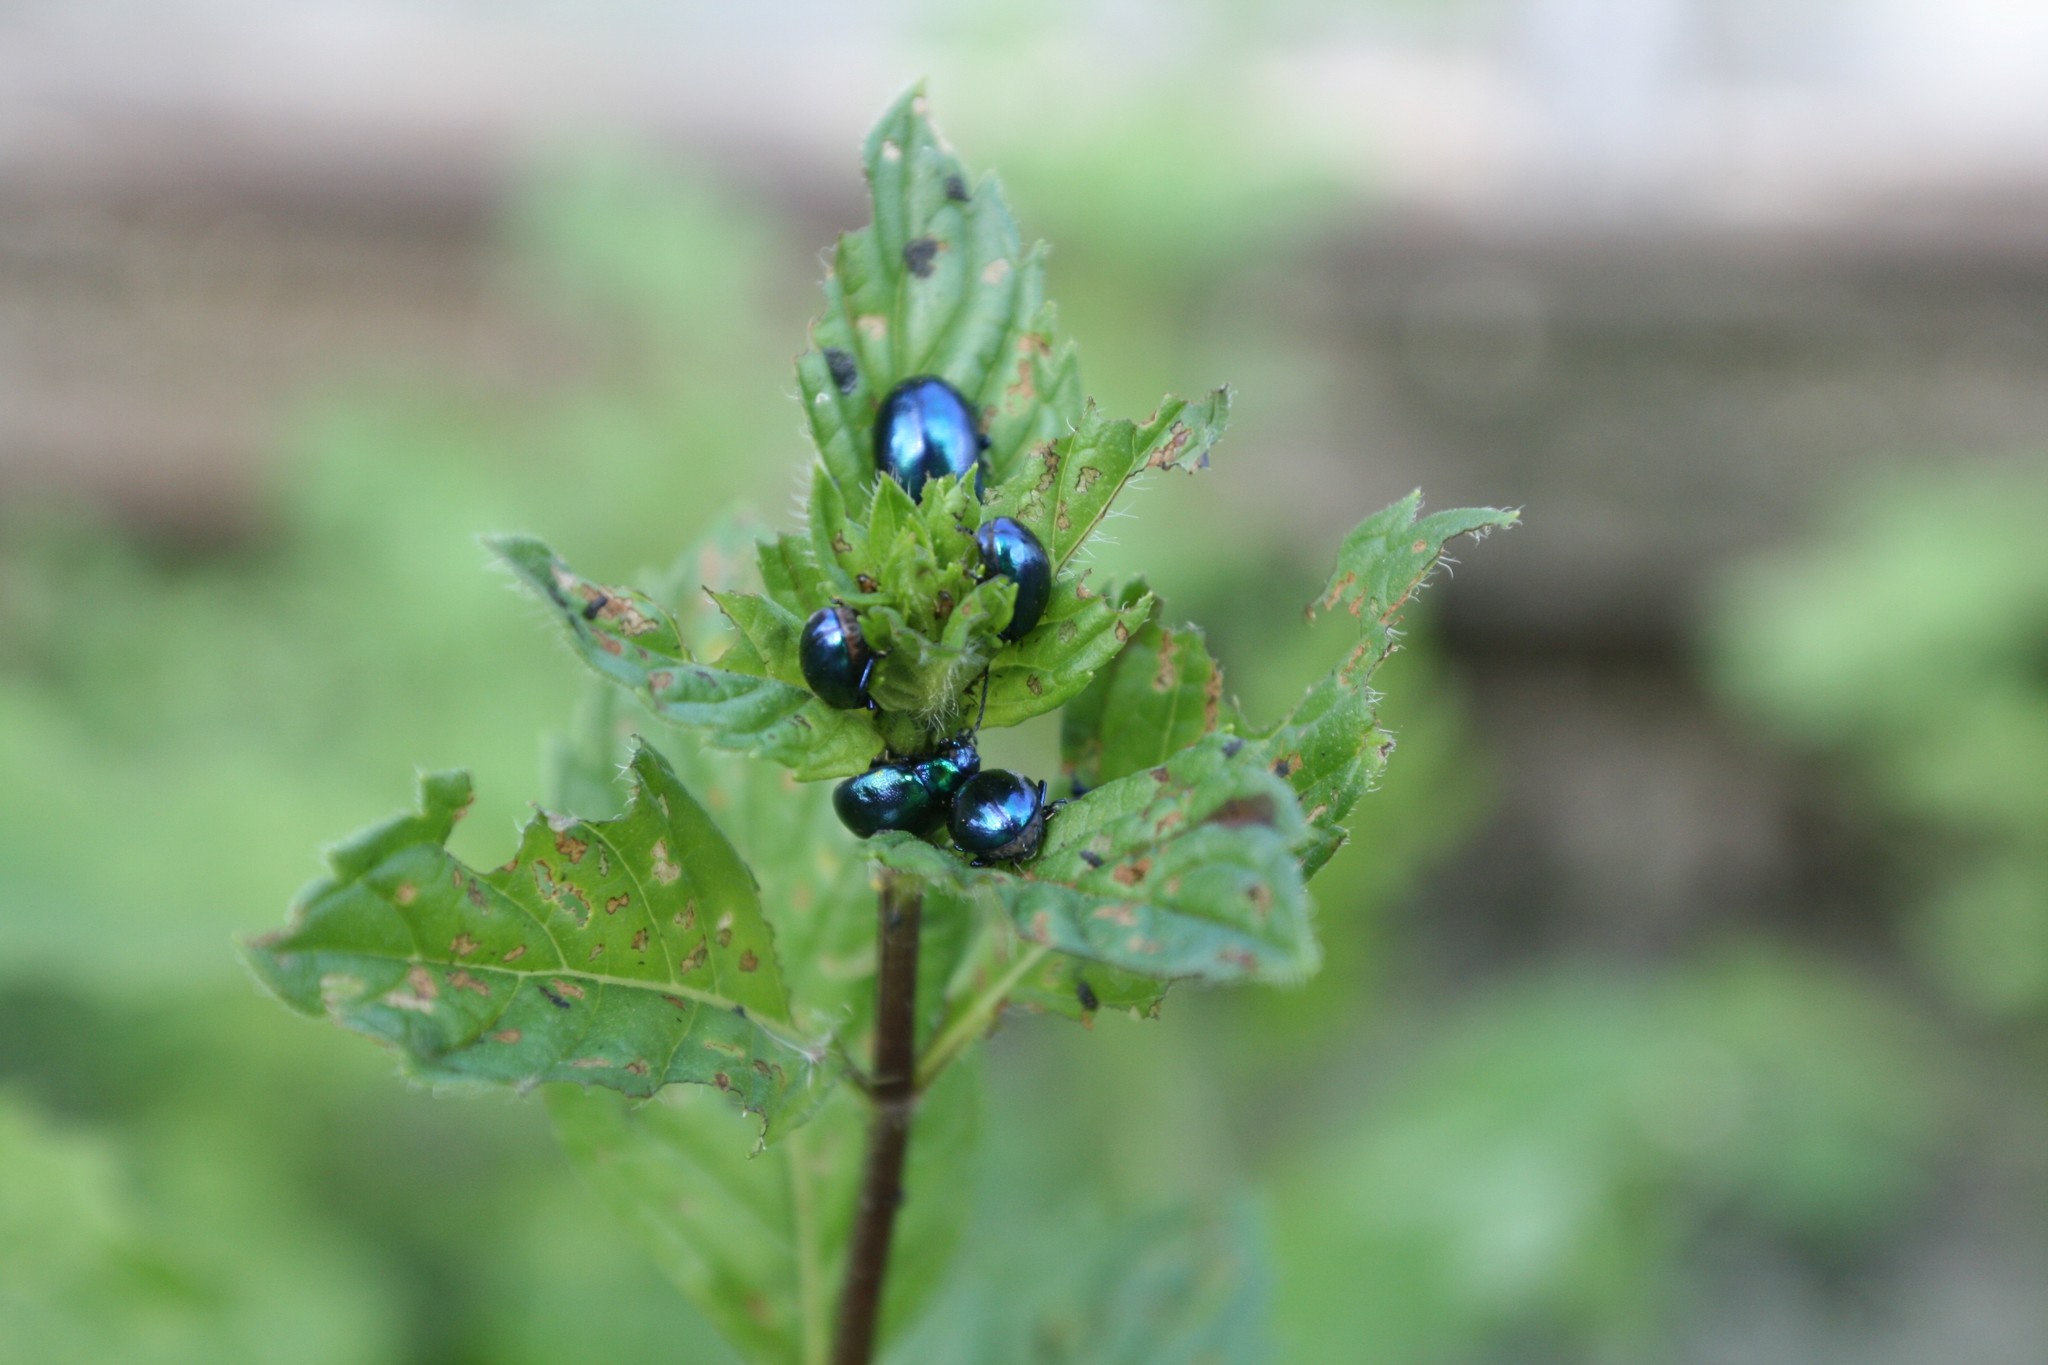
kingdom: Animalia
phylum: Arthropoda
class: Insecta
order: Coleoptera
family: Chrysomelidae
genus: Chrysolina
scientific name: Chrysolina coerulans
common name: Blue mint beetle
